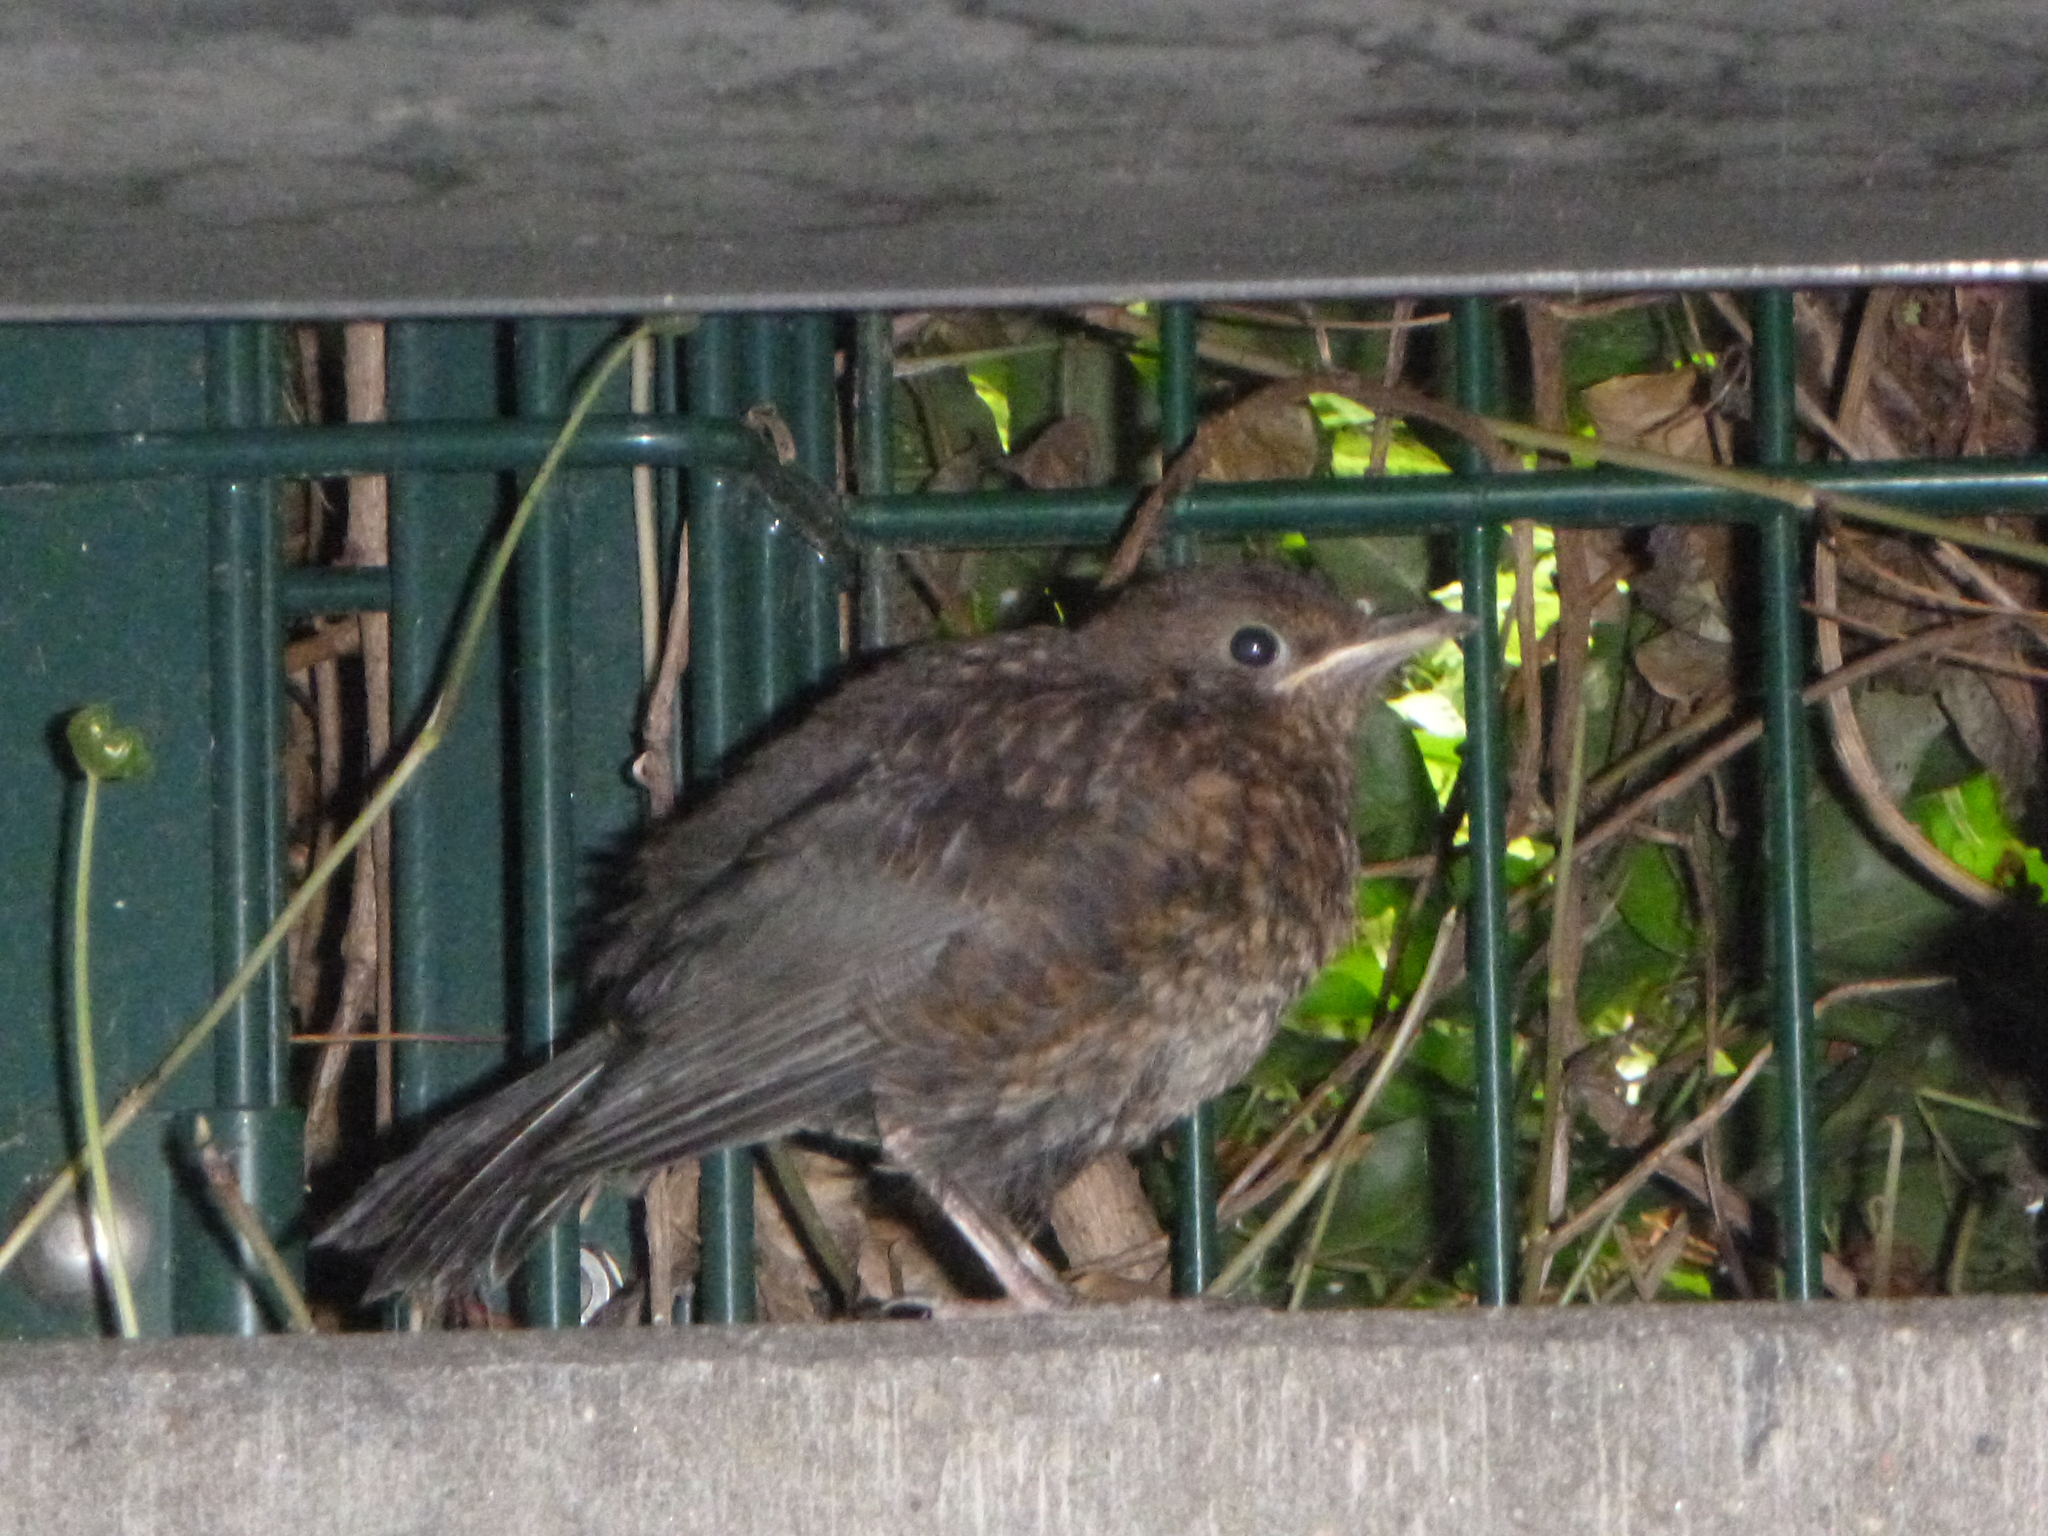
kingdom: Animalia
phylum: Chordata
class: Aves
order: Passeriformes
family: Turdidae
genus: Turdus
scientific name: Turdus merula
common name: Common blackbird
